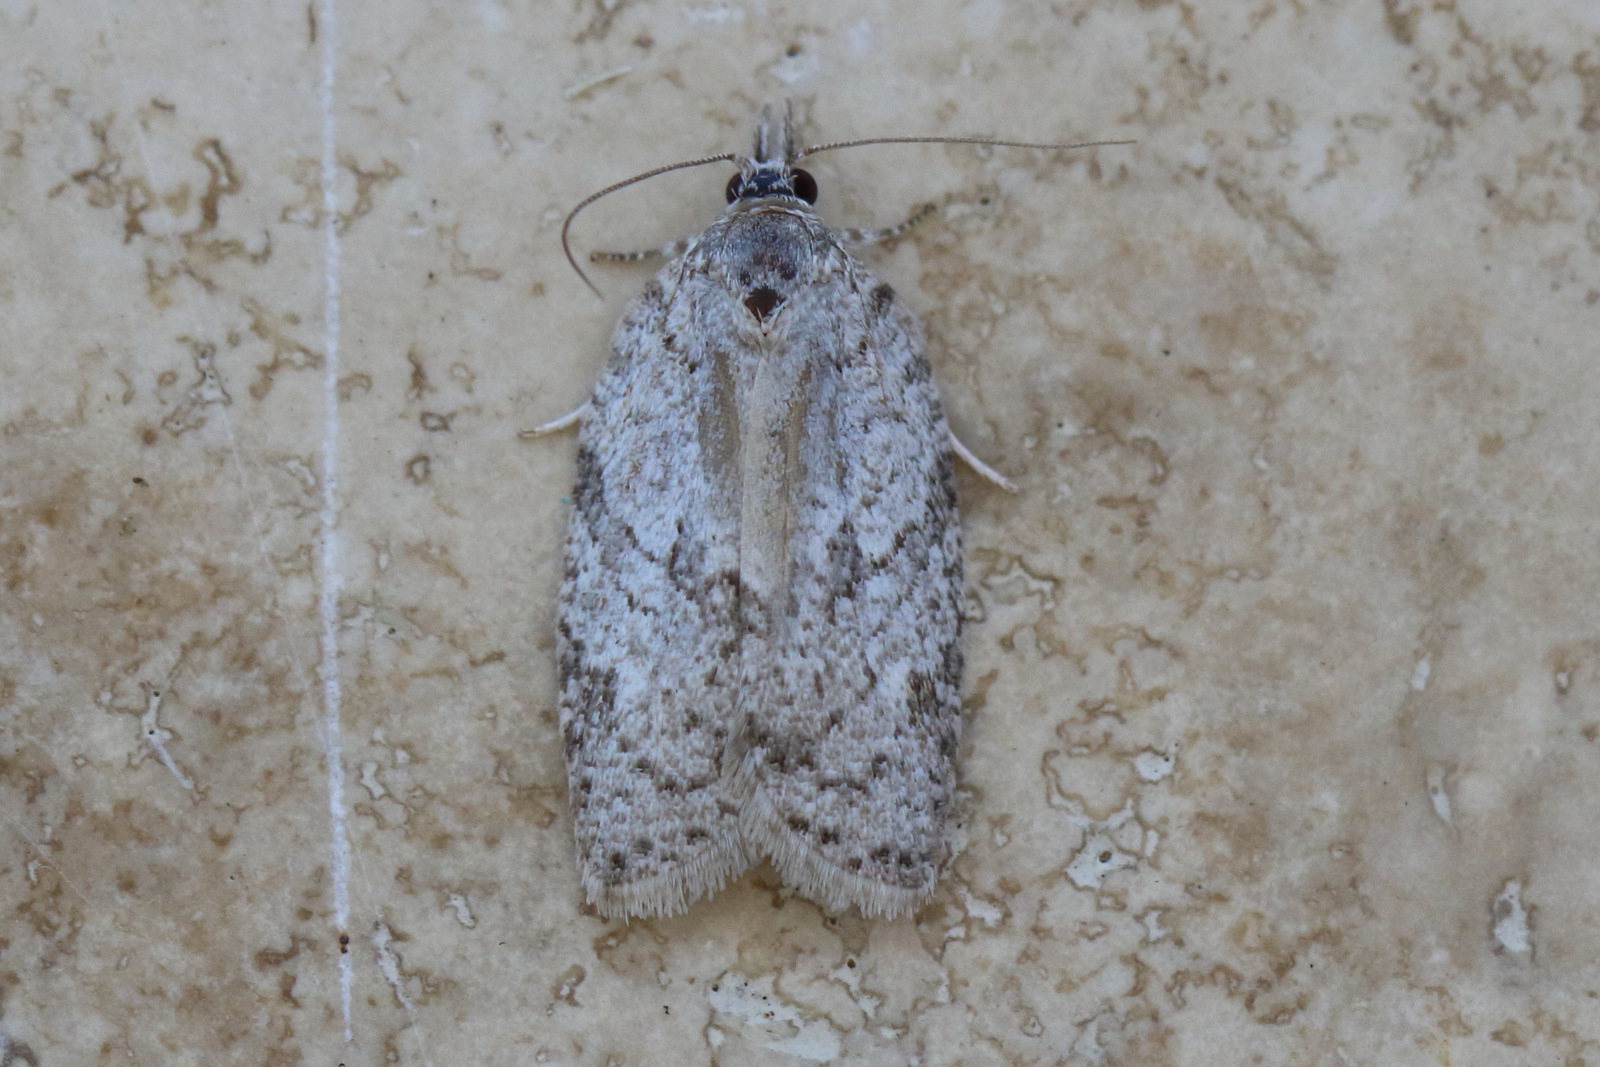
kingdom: Animalia
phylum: Arthropoda
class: Insecta
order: Lepidoptera
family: Tortricidae
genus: Isotenes
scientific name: Isotenes miserana
